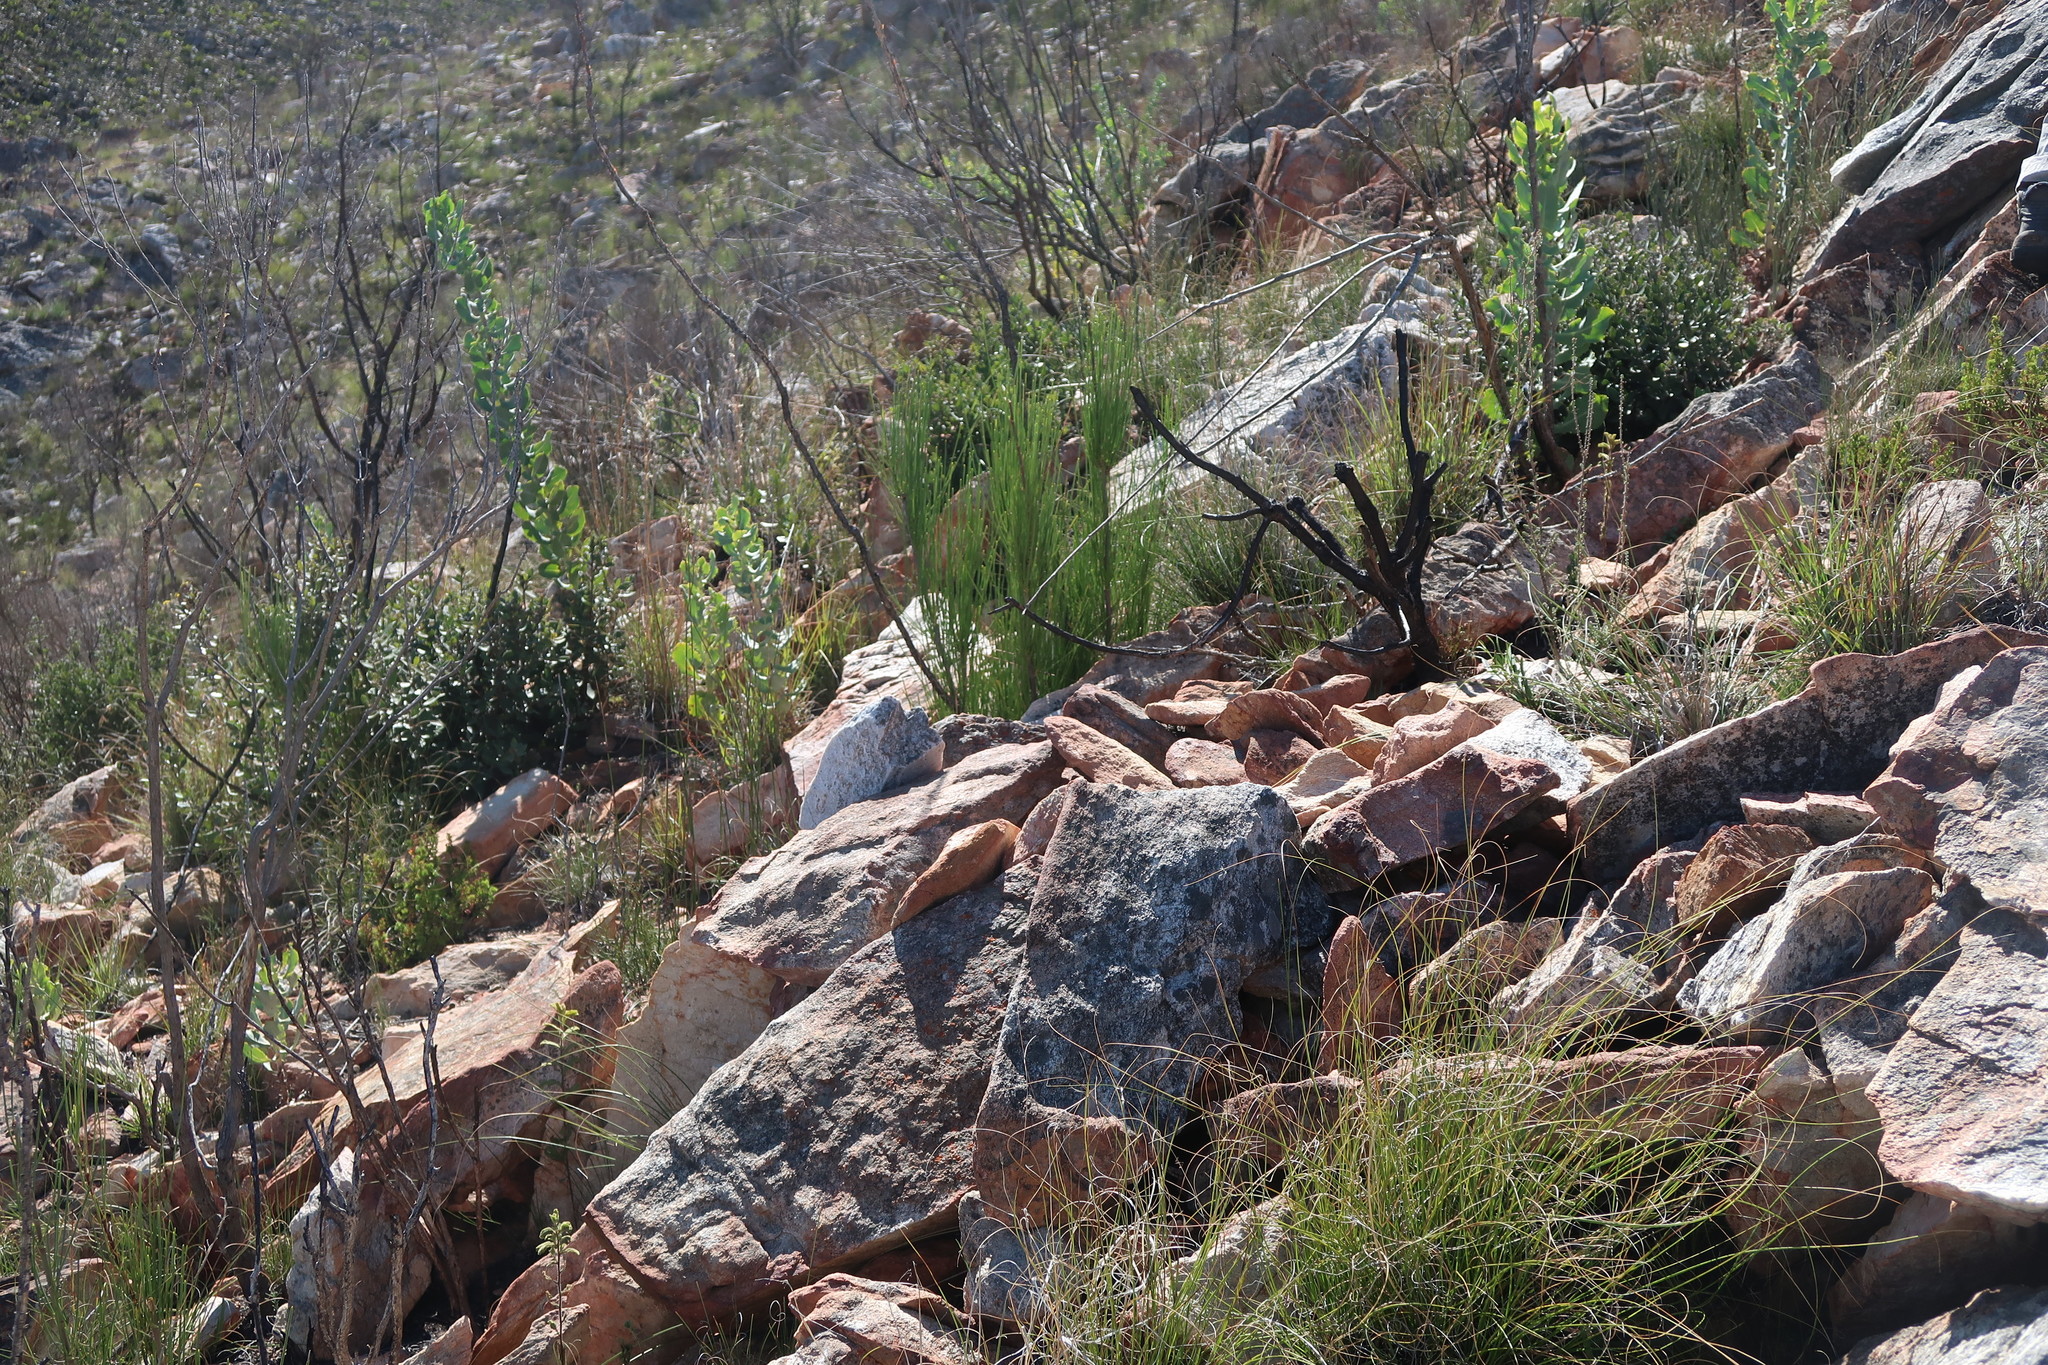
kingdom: Plantae
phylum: Tracheophyta
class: Magnoliopsida
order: Asterales
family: Asteraceae
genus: Othonna
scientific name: Othonna parviflora
